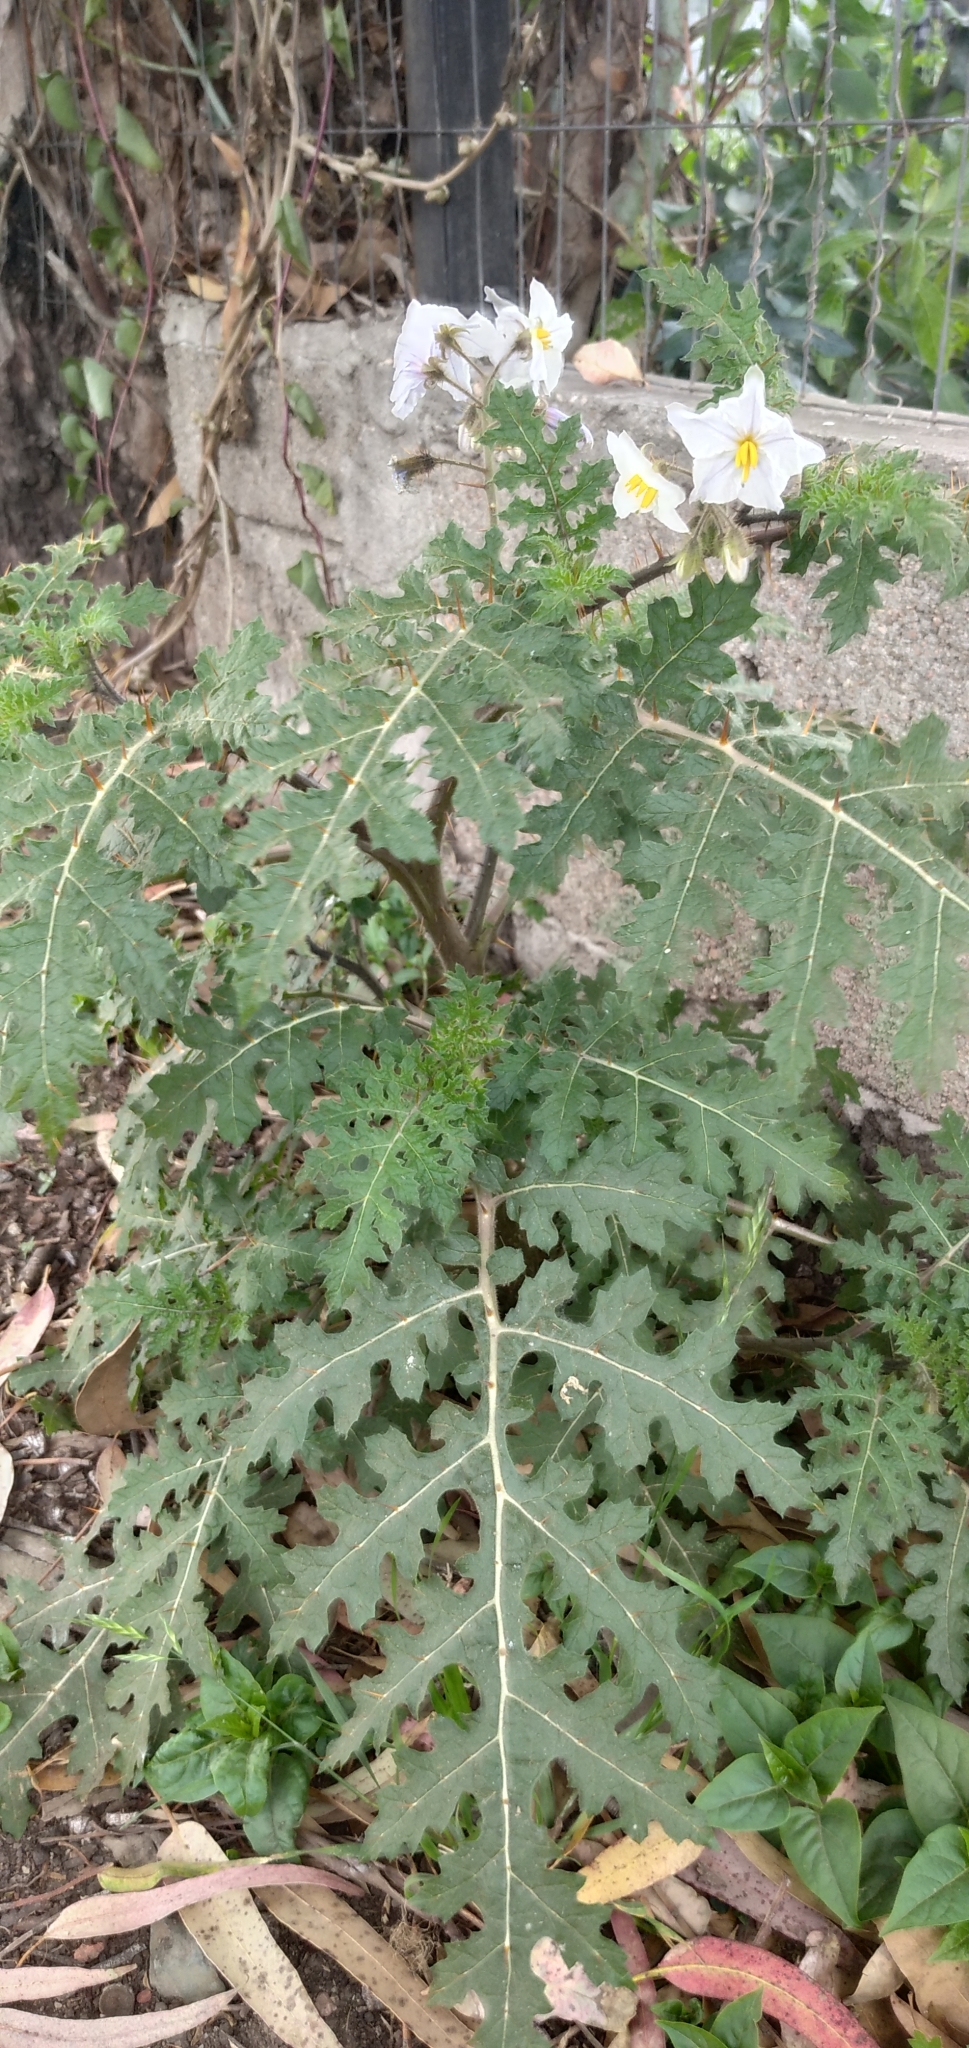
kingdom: Plantae
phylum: Tracheophyta
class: Magnoliopsida
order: Solanales
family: Solanaceae
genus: Solanum
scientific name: Solanum sisymbriifolium
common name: Red buffalo-bur
